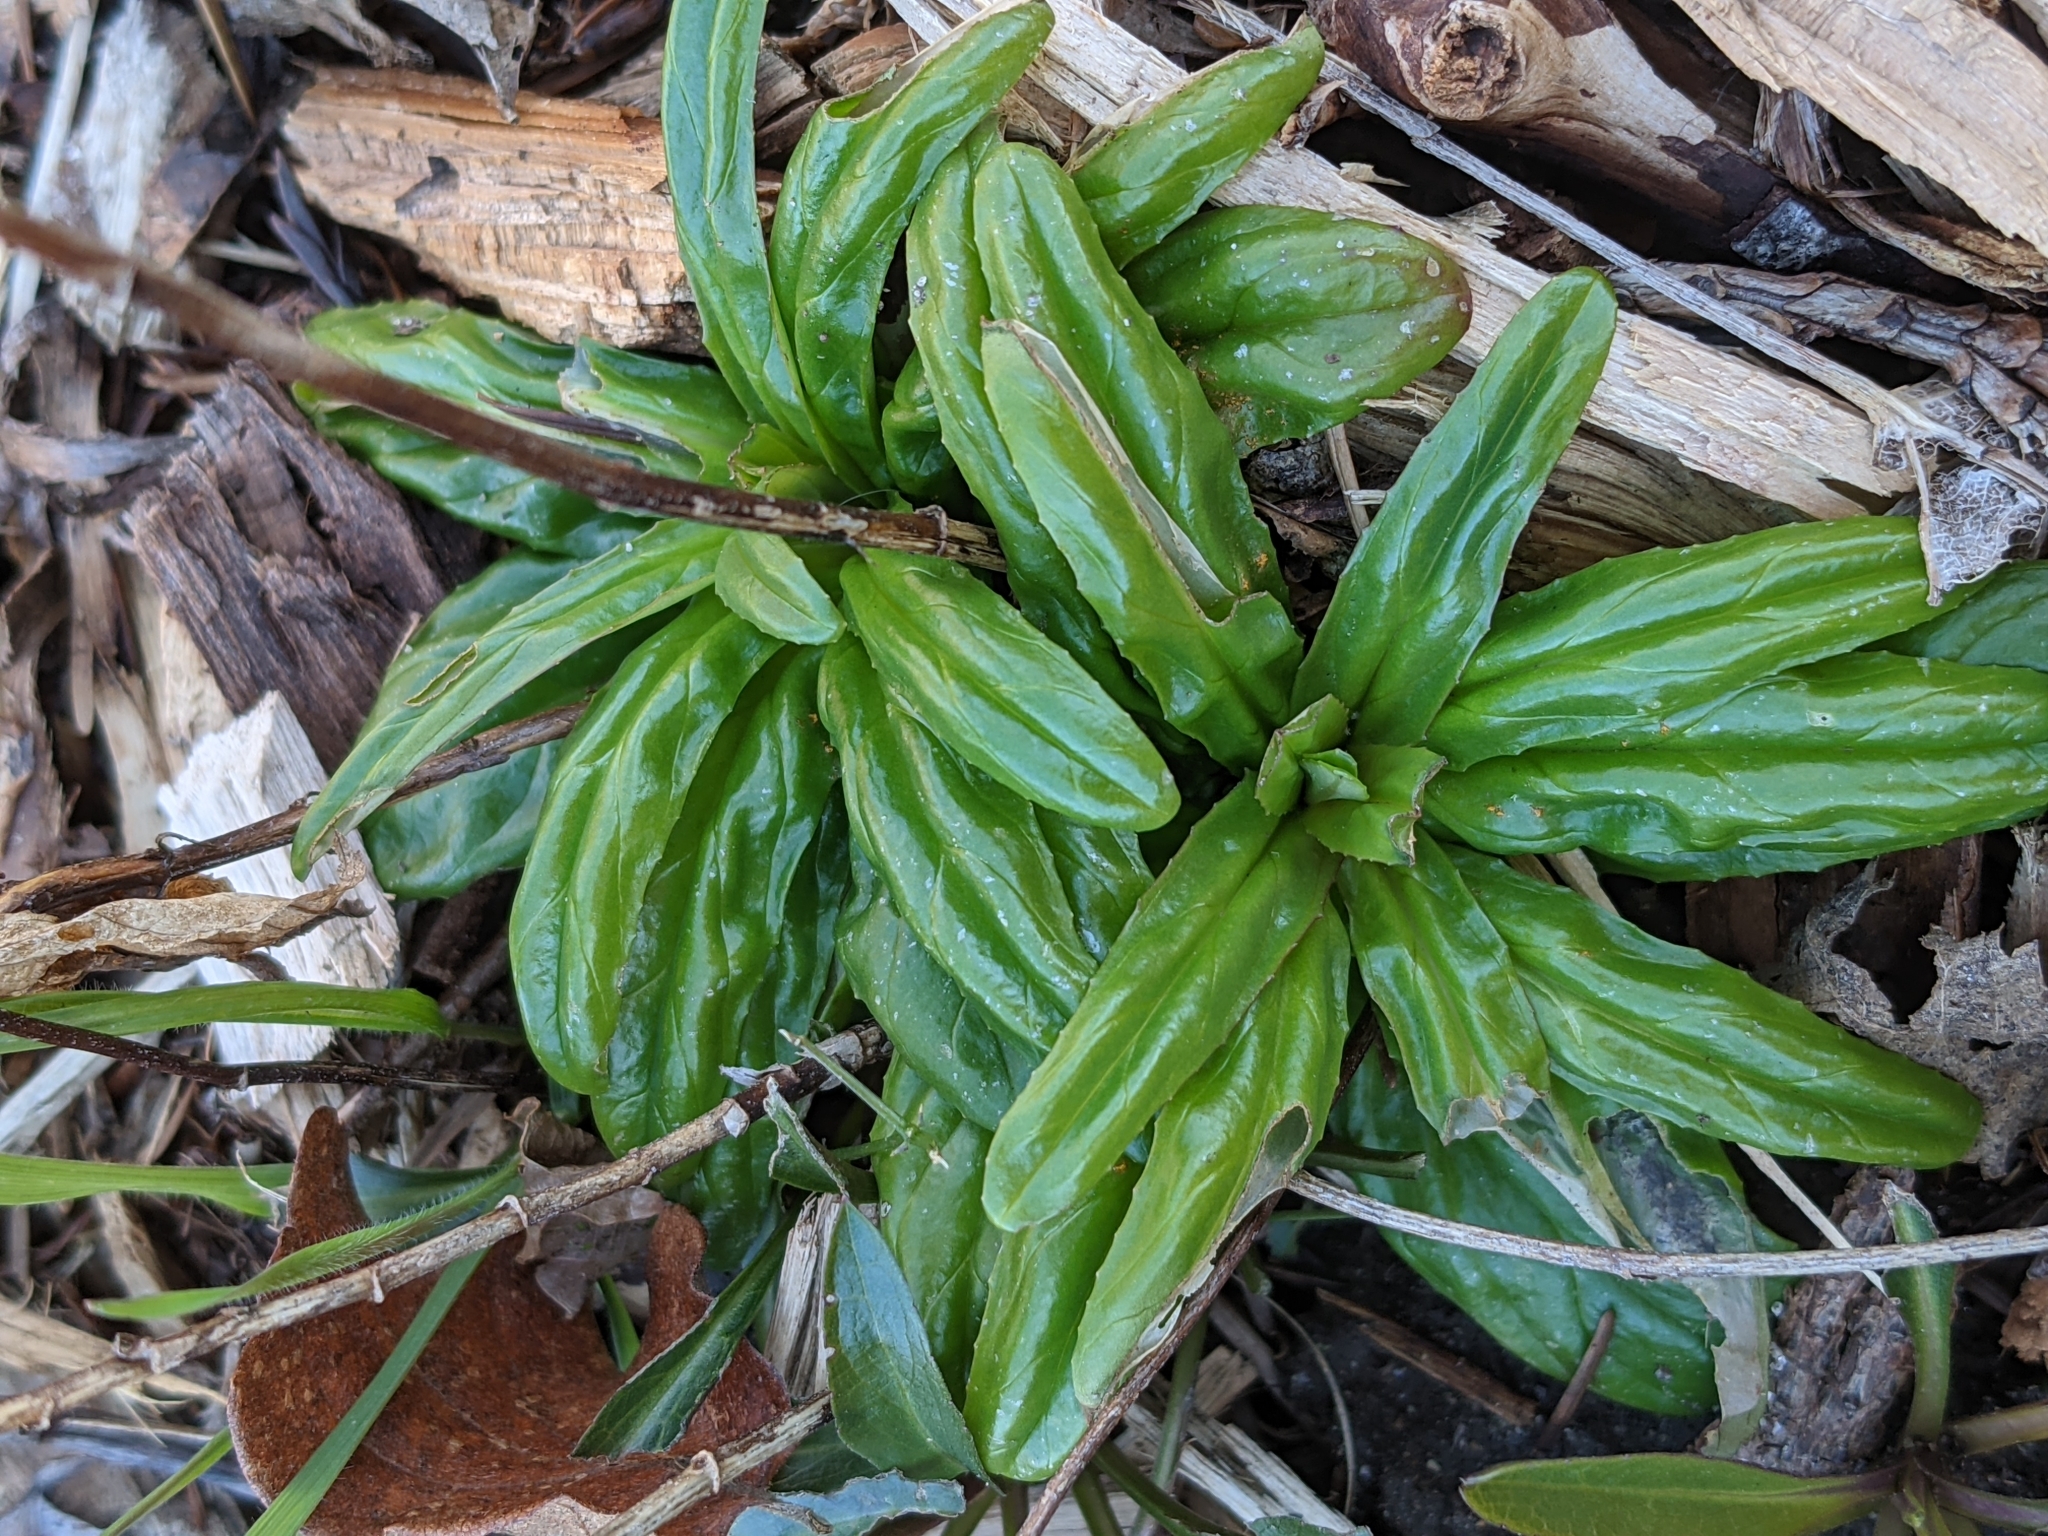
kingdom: Plantae
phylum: Tracheophyta
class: Magnoliopsida
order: Myrtales
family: Onagraceae
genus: Epilobium
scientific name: Epilobium ciliatum
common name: American willowherb
